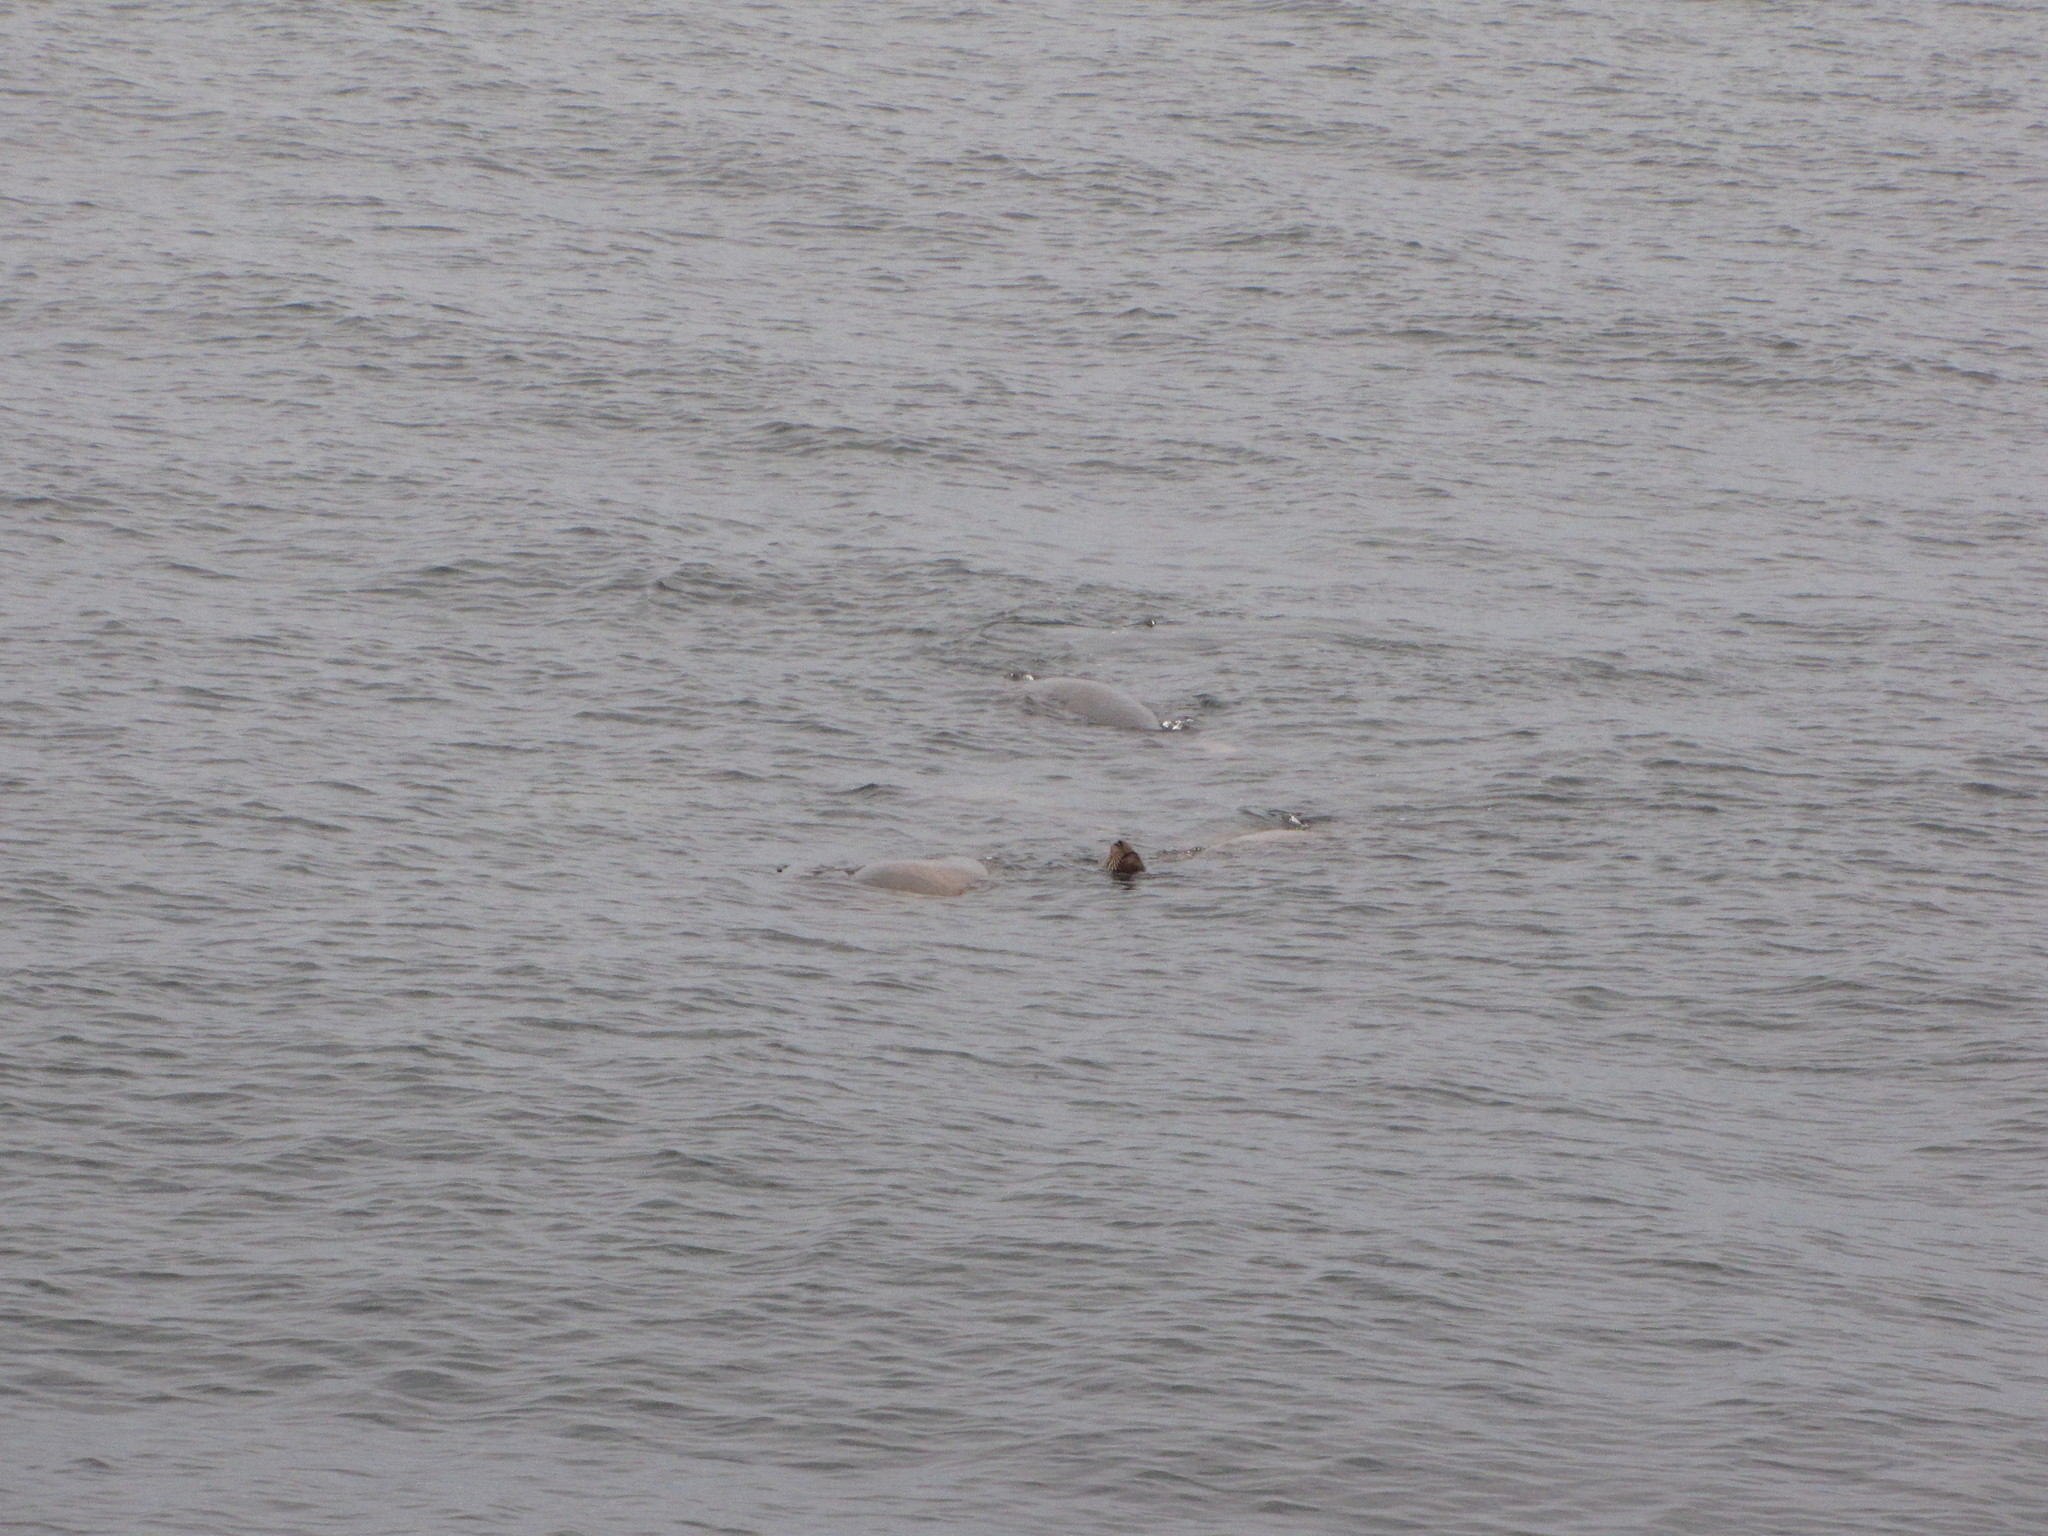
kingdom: Animalia
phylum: Chordata
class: Mammalia
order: Carnivora
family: Otariidae
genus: Zalophus
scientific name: Zalophus californianus
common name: California sea lion
